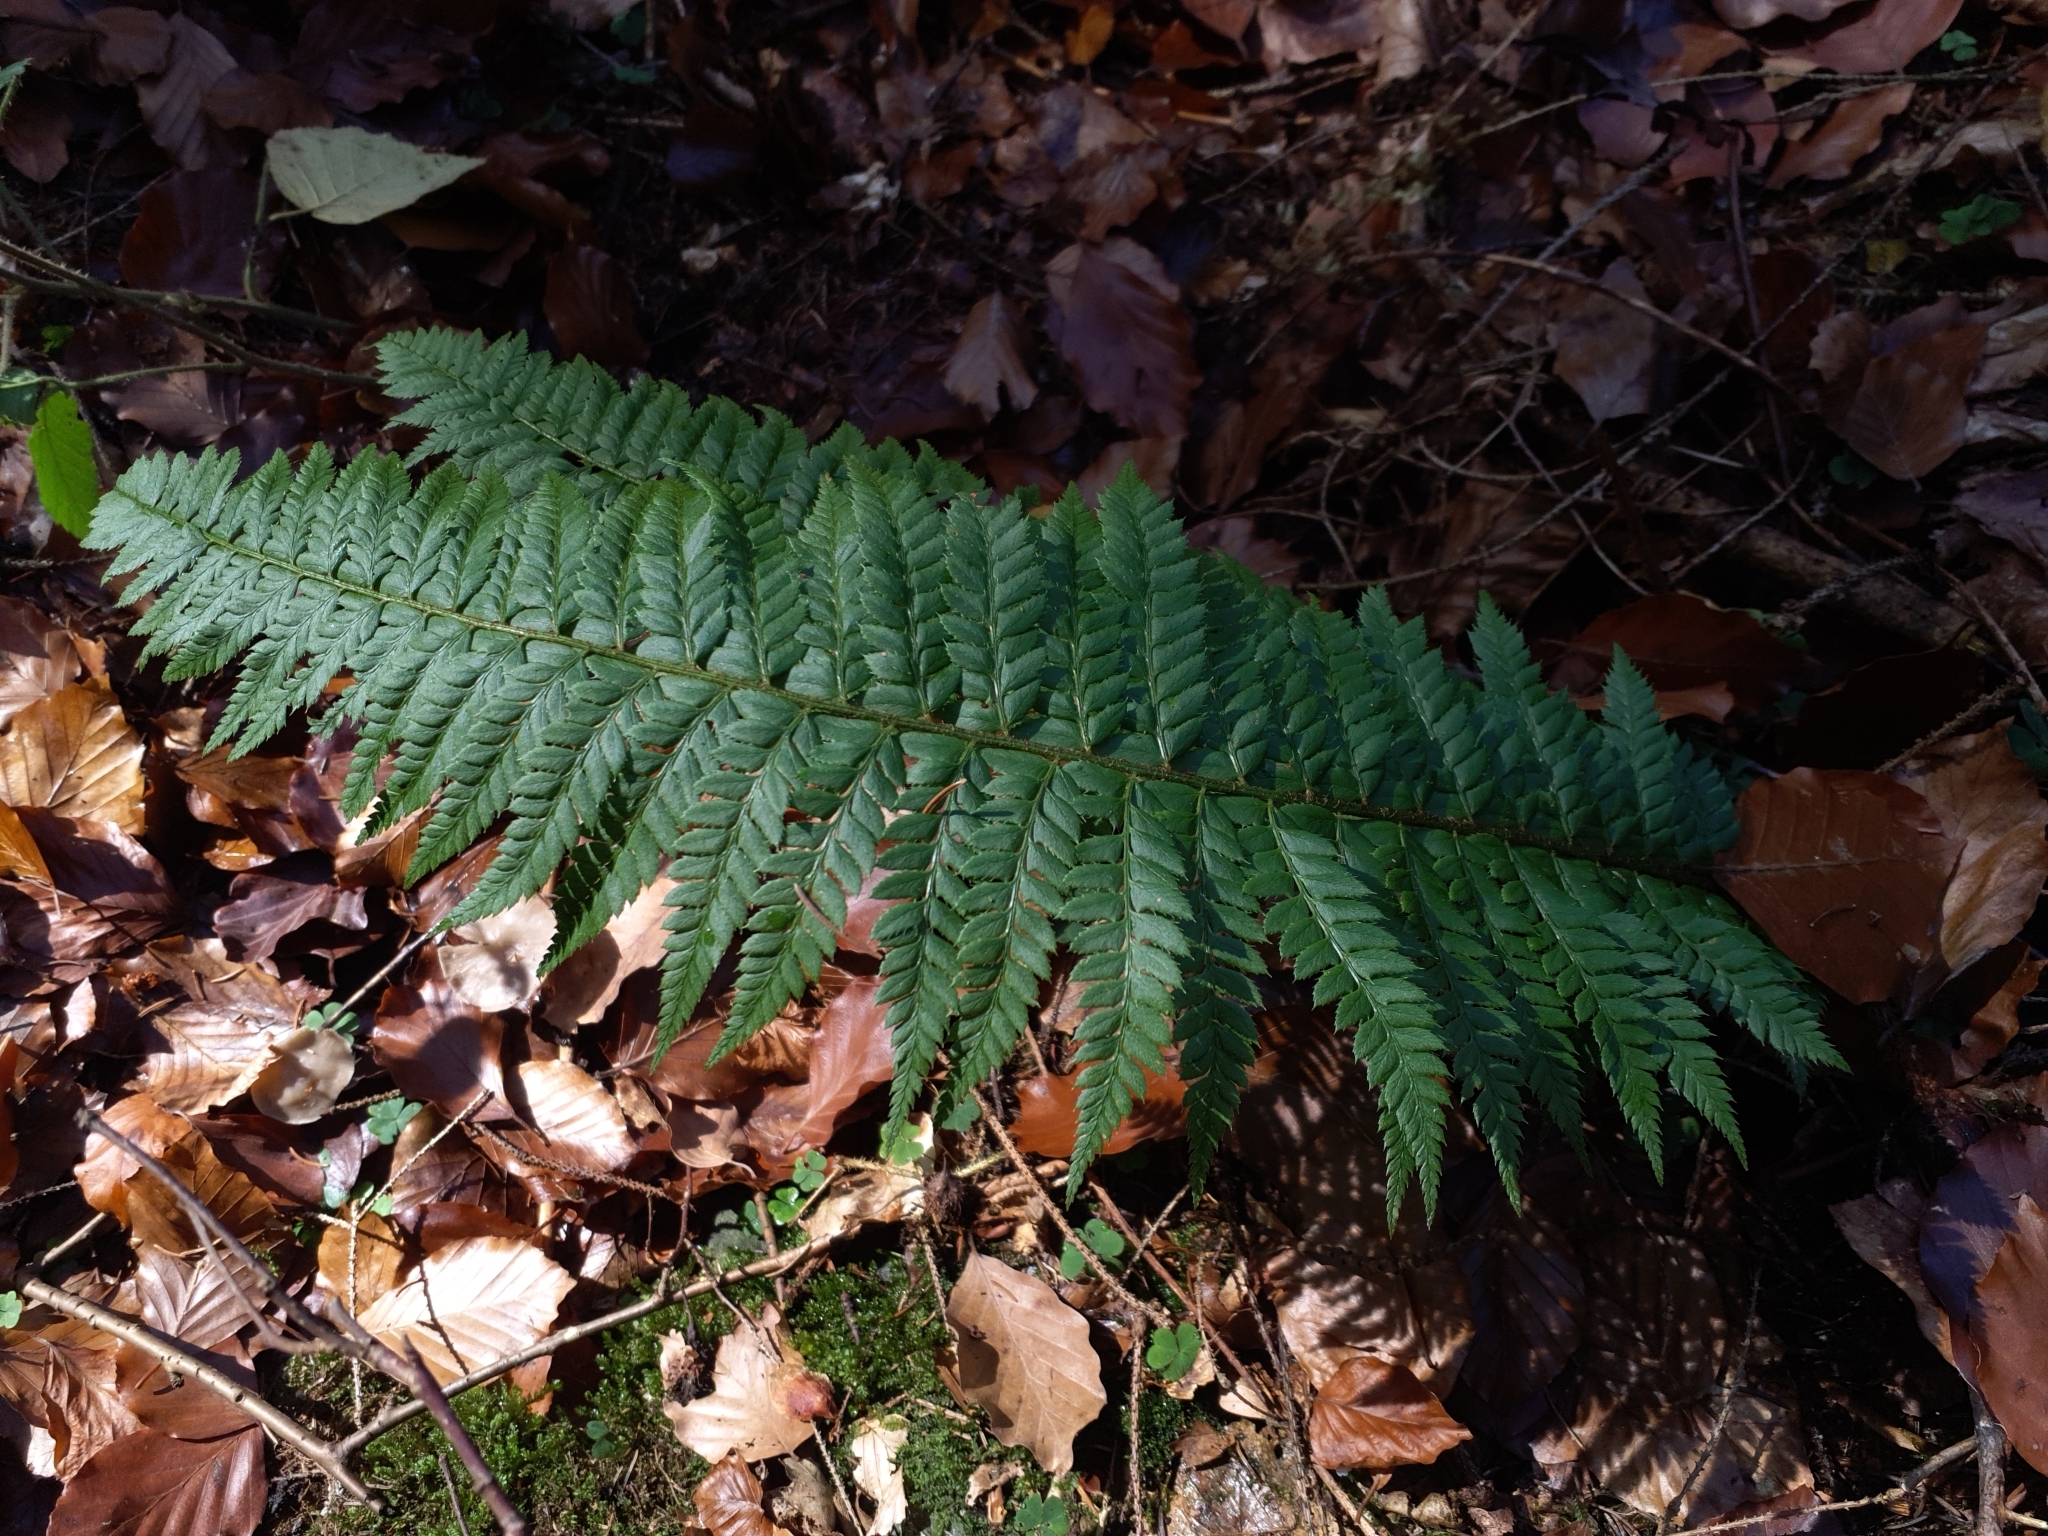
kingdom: Plantae
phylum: Tracheophyta
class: Polypodiopsida
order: Polypodiales
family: Dryopteridaceae
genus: Polystichum
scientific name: Polystichum aculeatum
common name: Hard shield-fern
